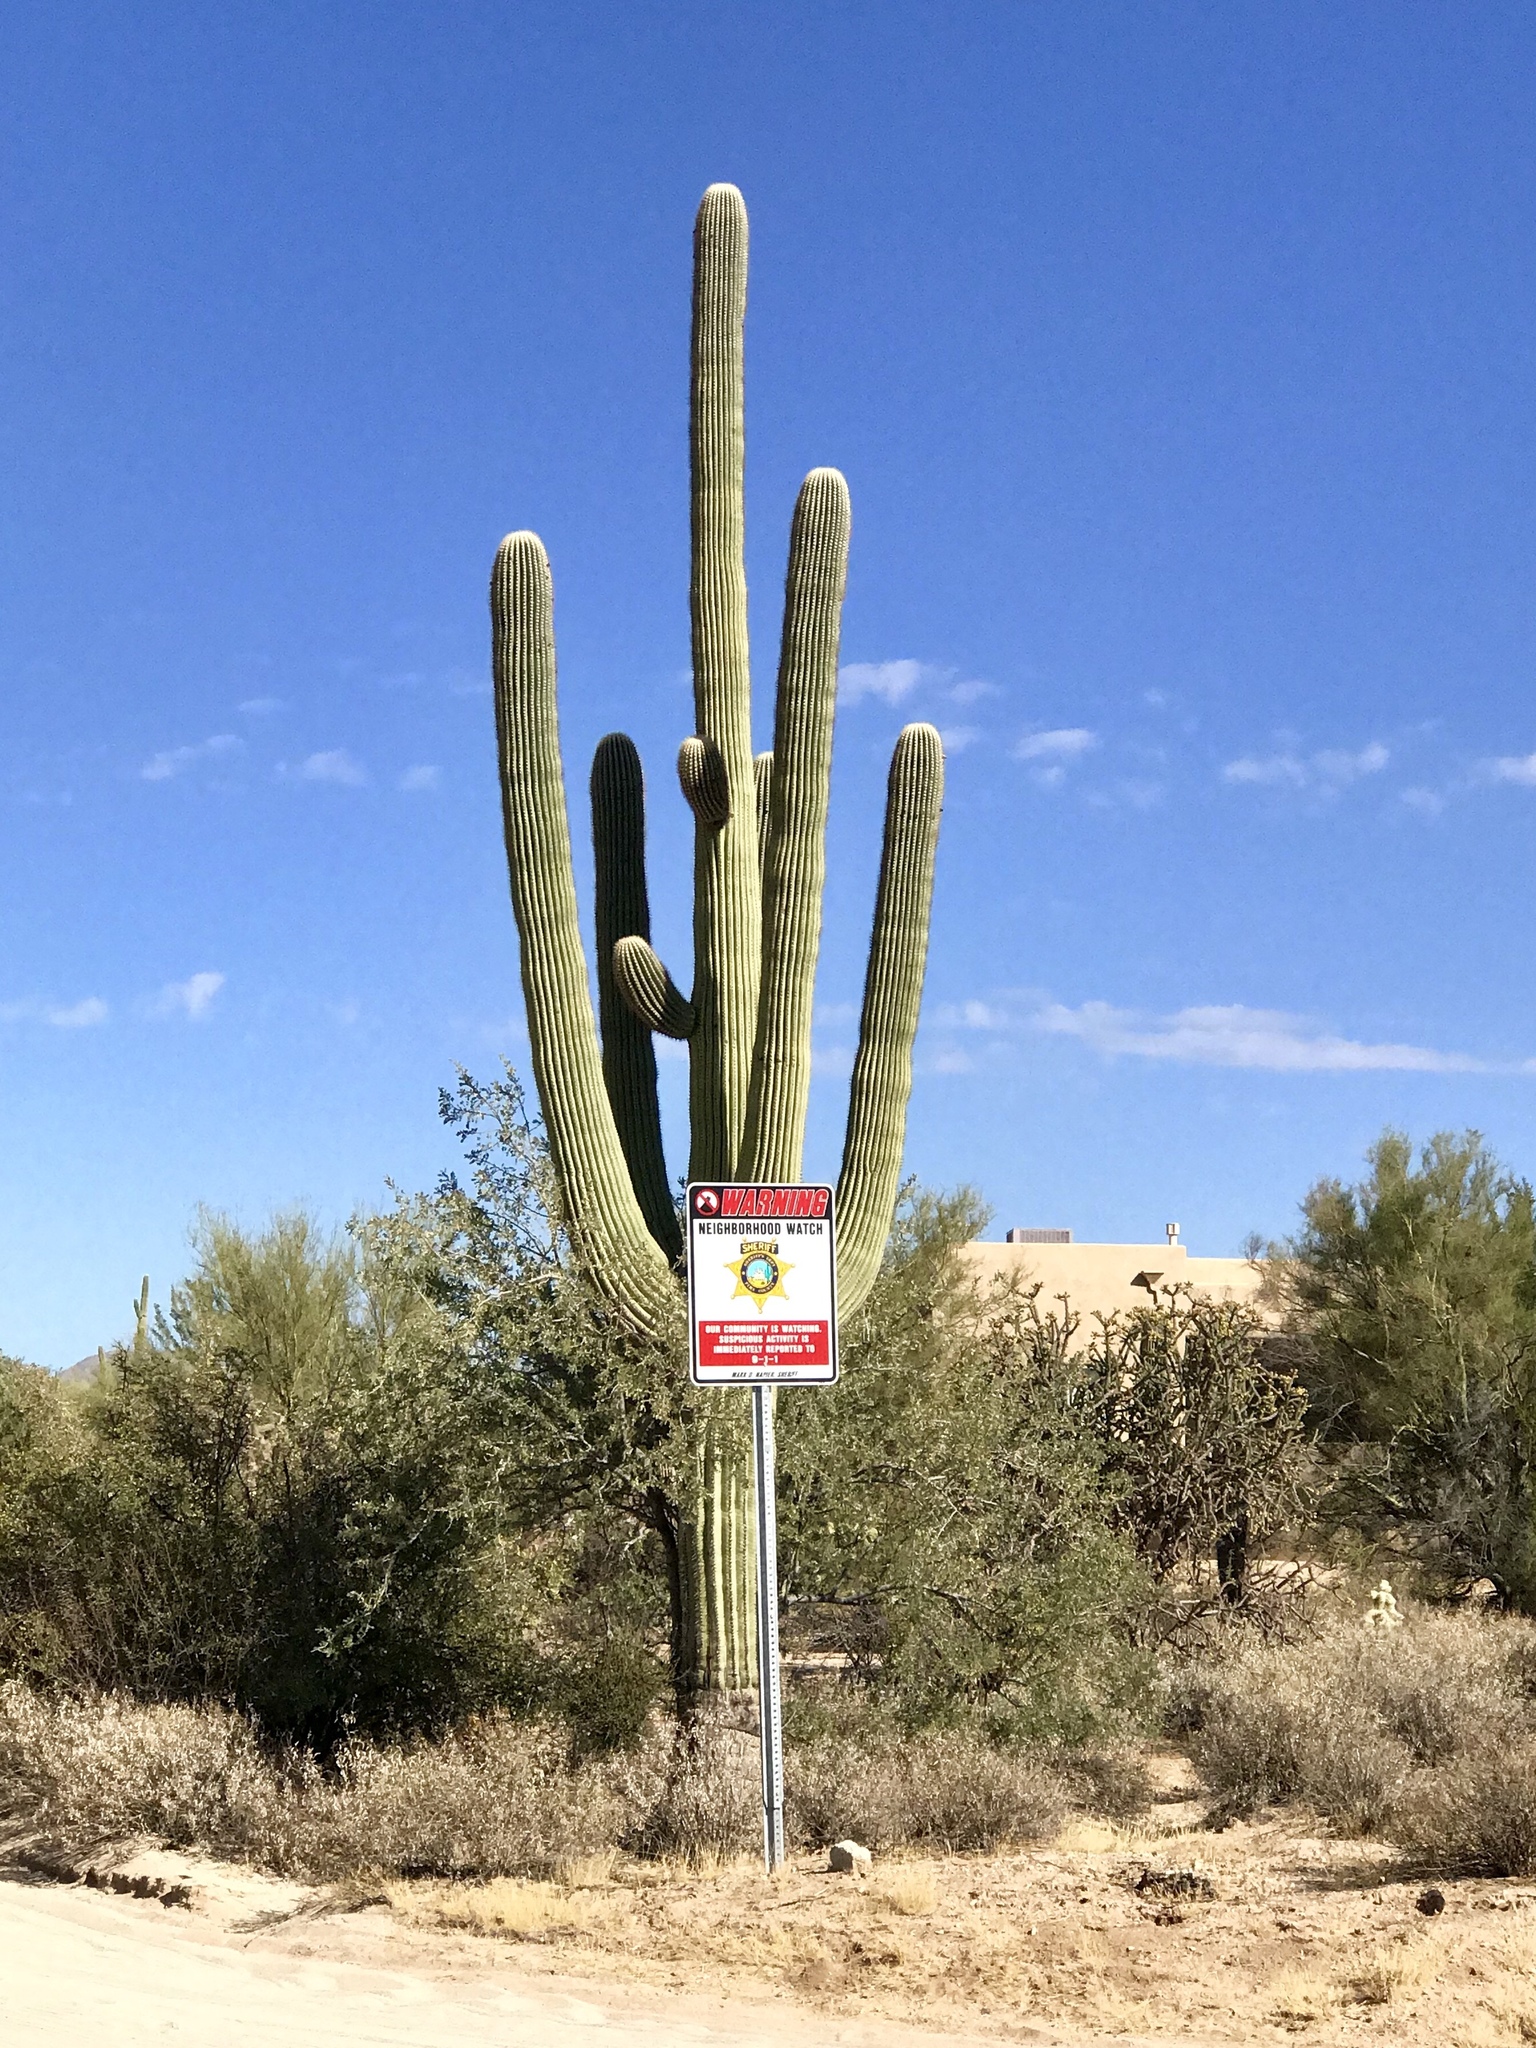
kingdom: Plantae
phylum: Tracheophyta
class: Magnoliopsida
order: Caryophyllales
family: Cactaceae
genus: Carnegiea
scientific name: Carnegiea gigantea
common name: Saguaro
